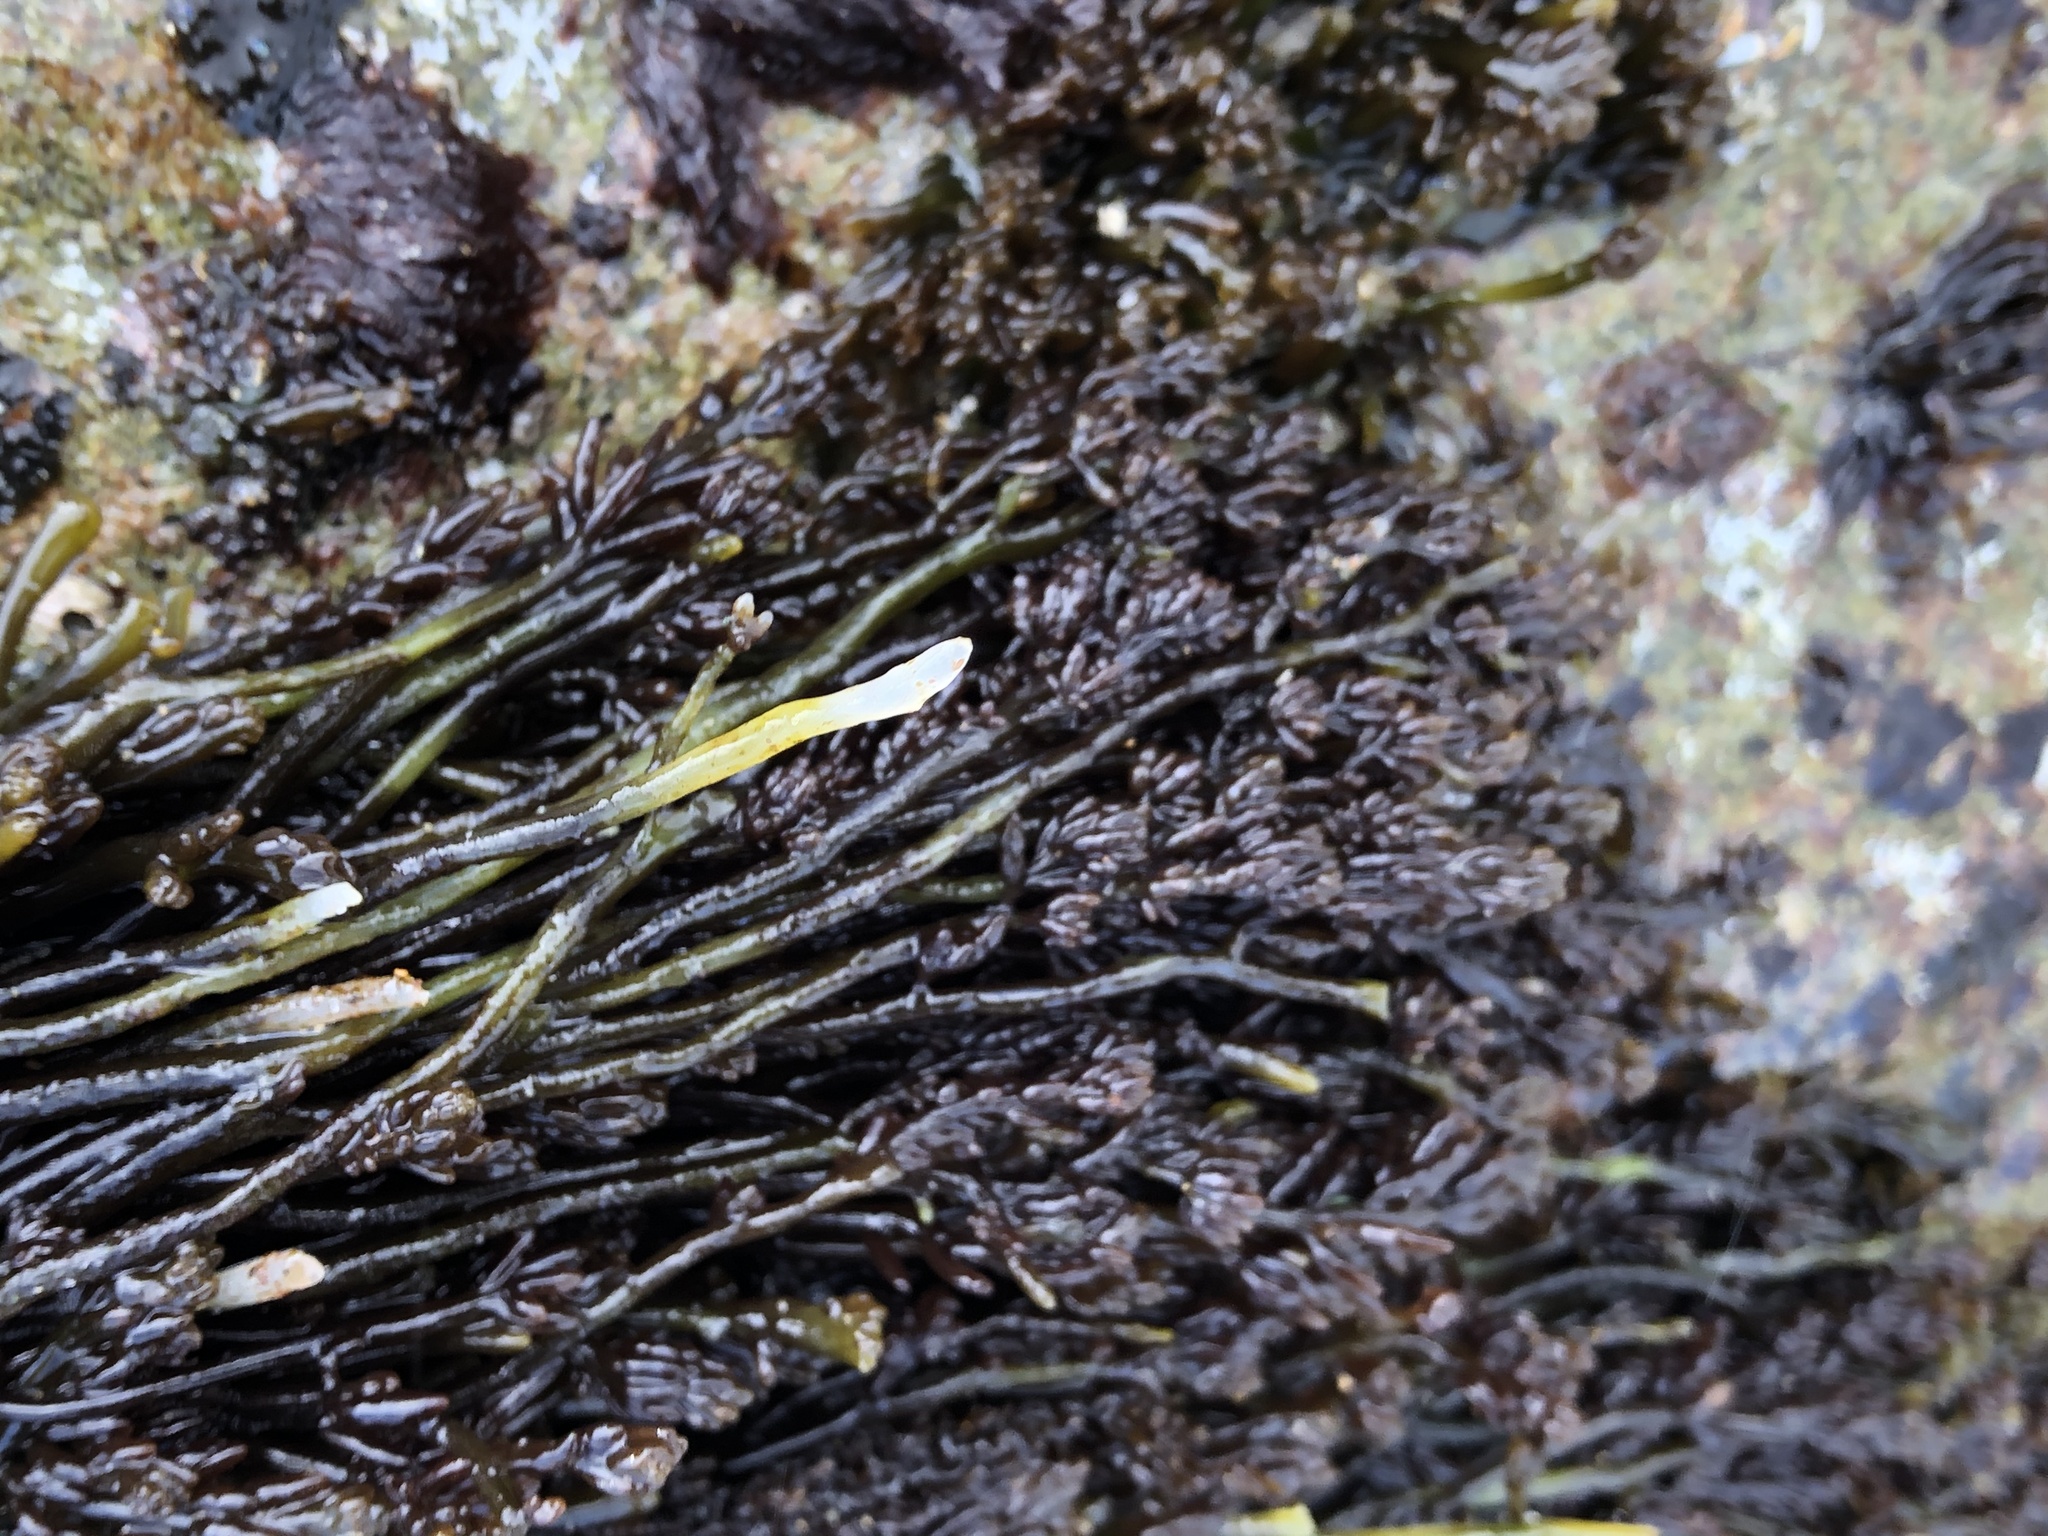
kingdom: Plantae
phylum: Rhodophyta
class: Florideophyceae
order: Rhodymeniales
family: Champiaceae
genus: Neogastroclonium
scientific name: Neogastroclonium subarticulatum
